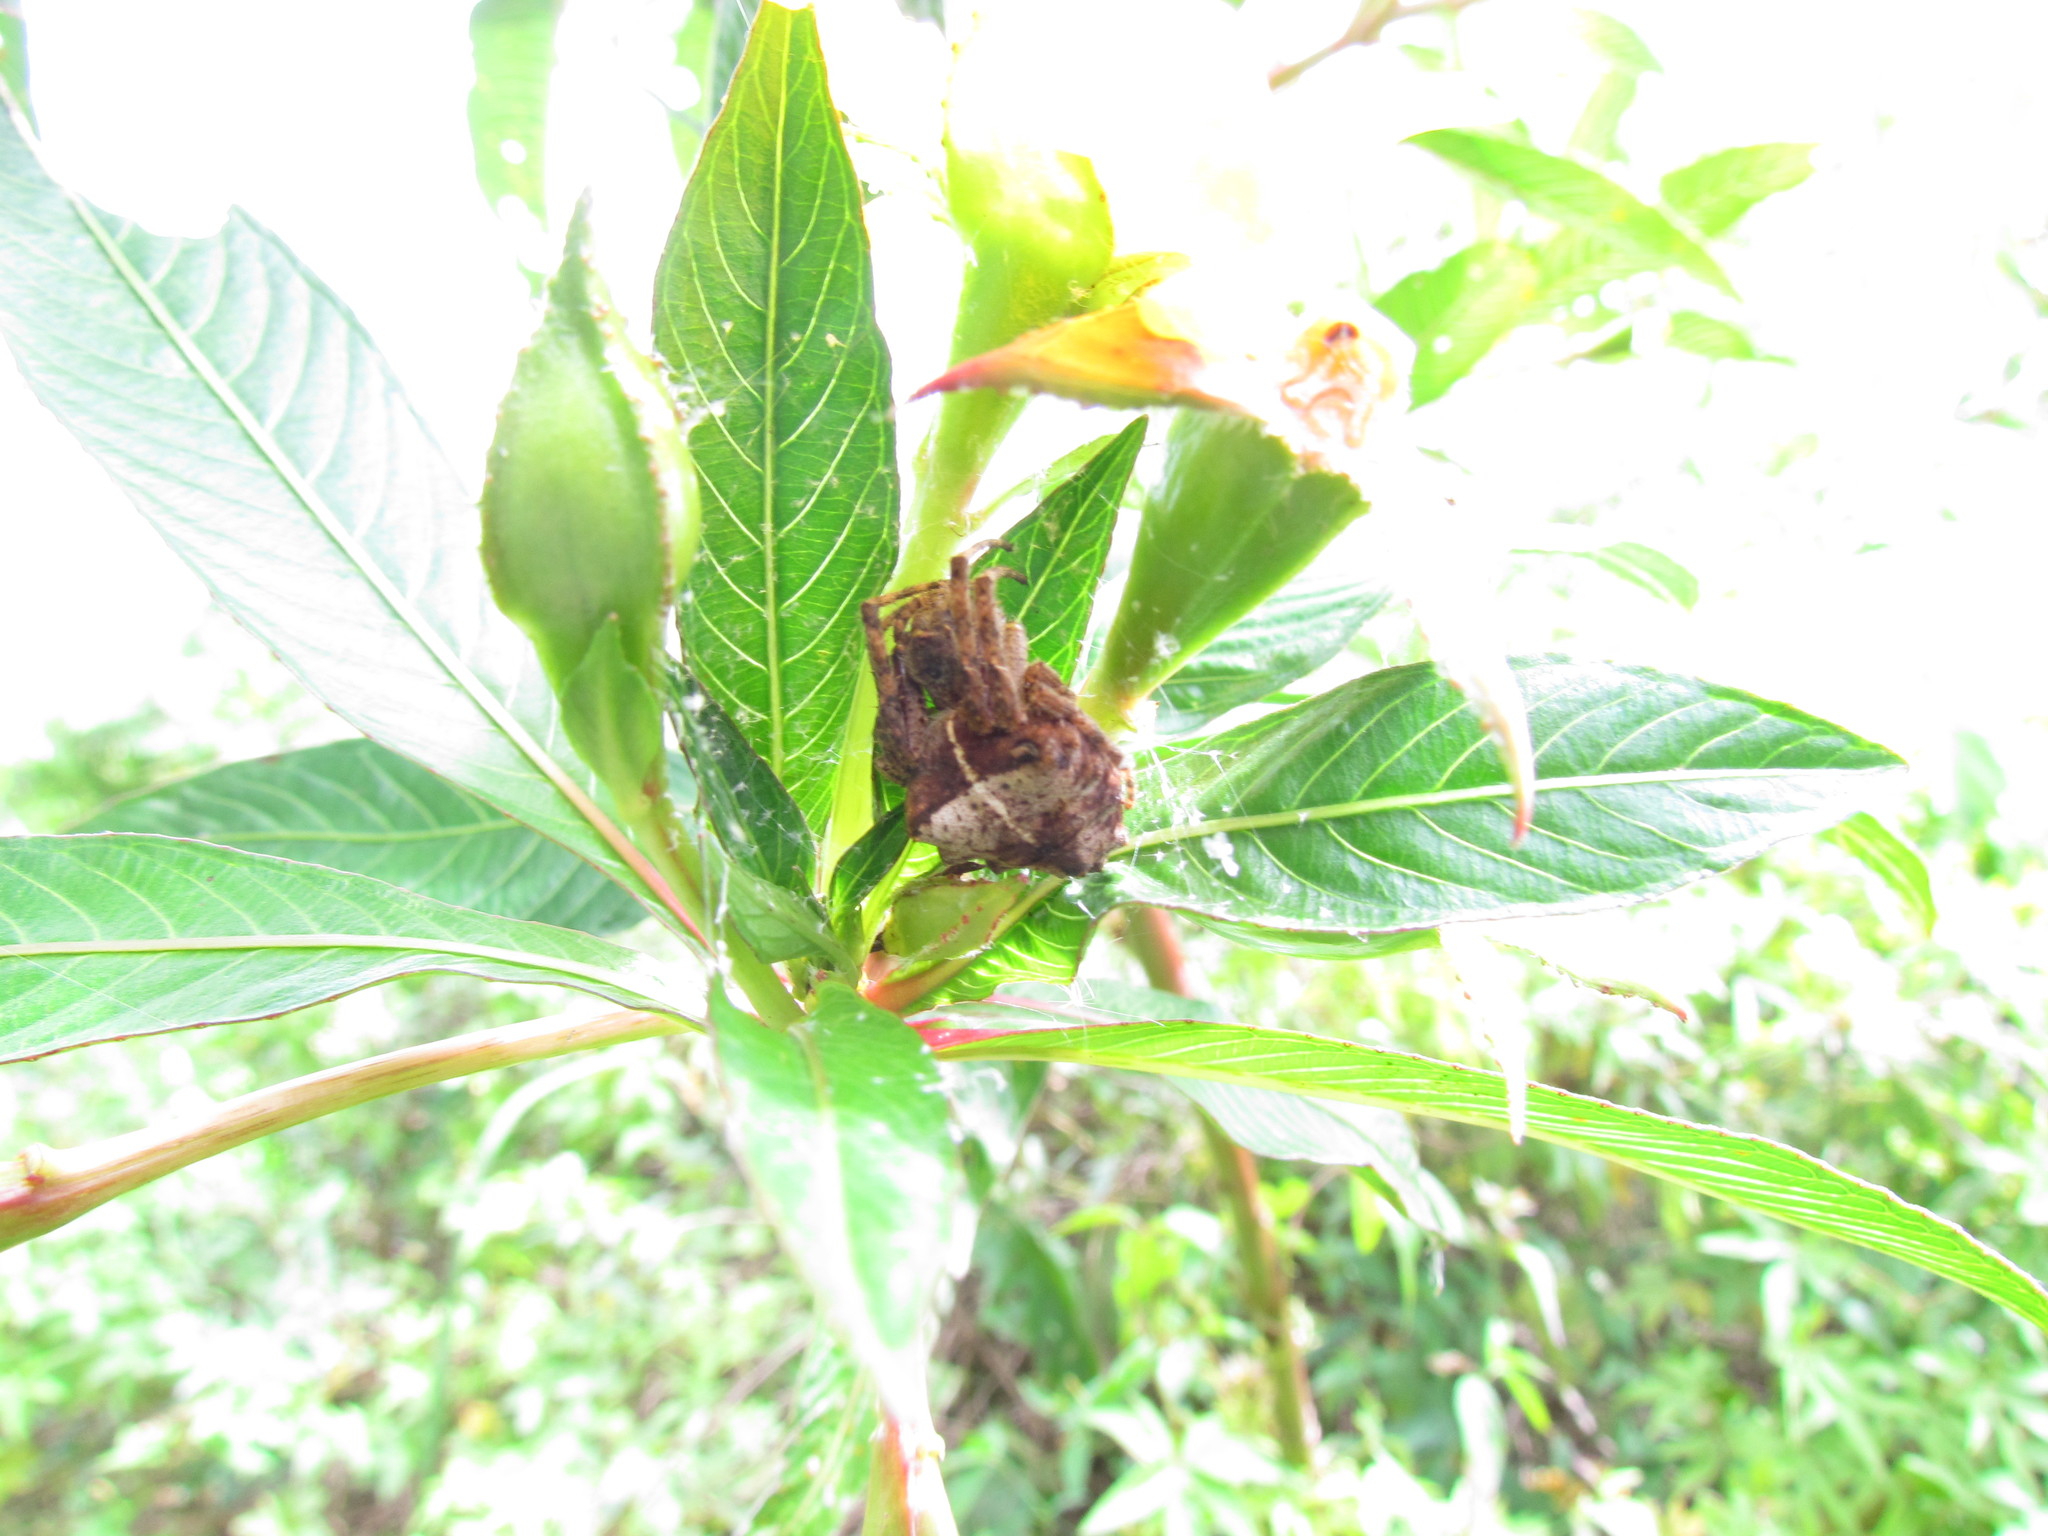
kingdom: Animalia
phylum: Arthropoda
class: Arachnida
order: Araneae
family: Araneidae
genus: Parawixia
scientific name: Parawixia audax
